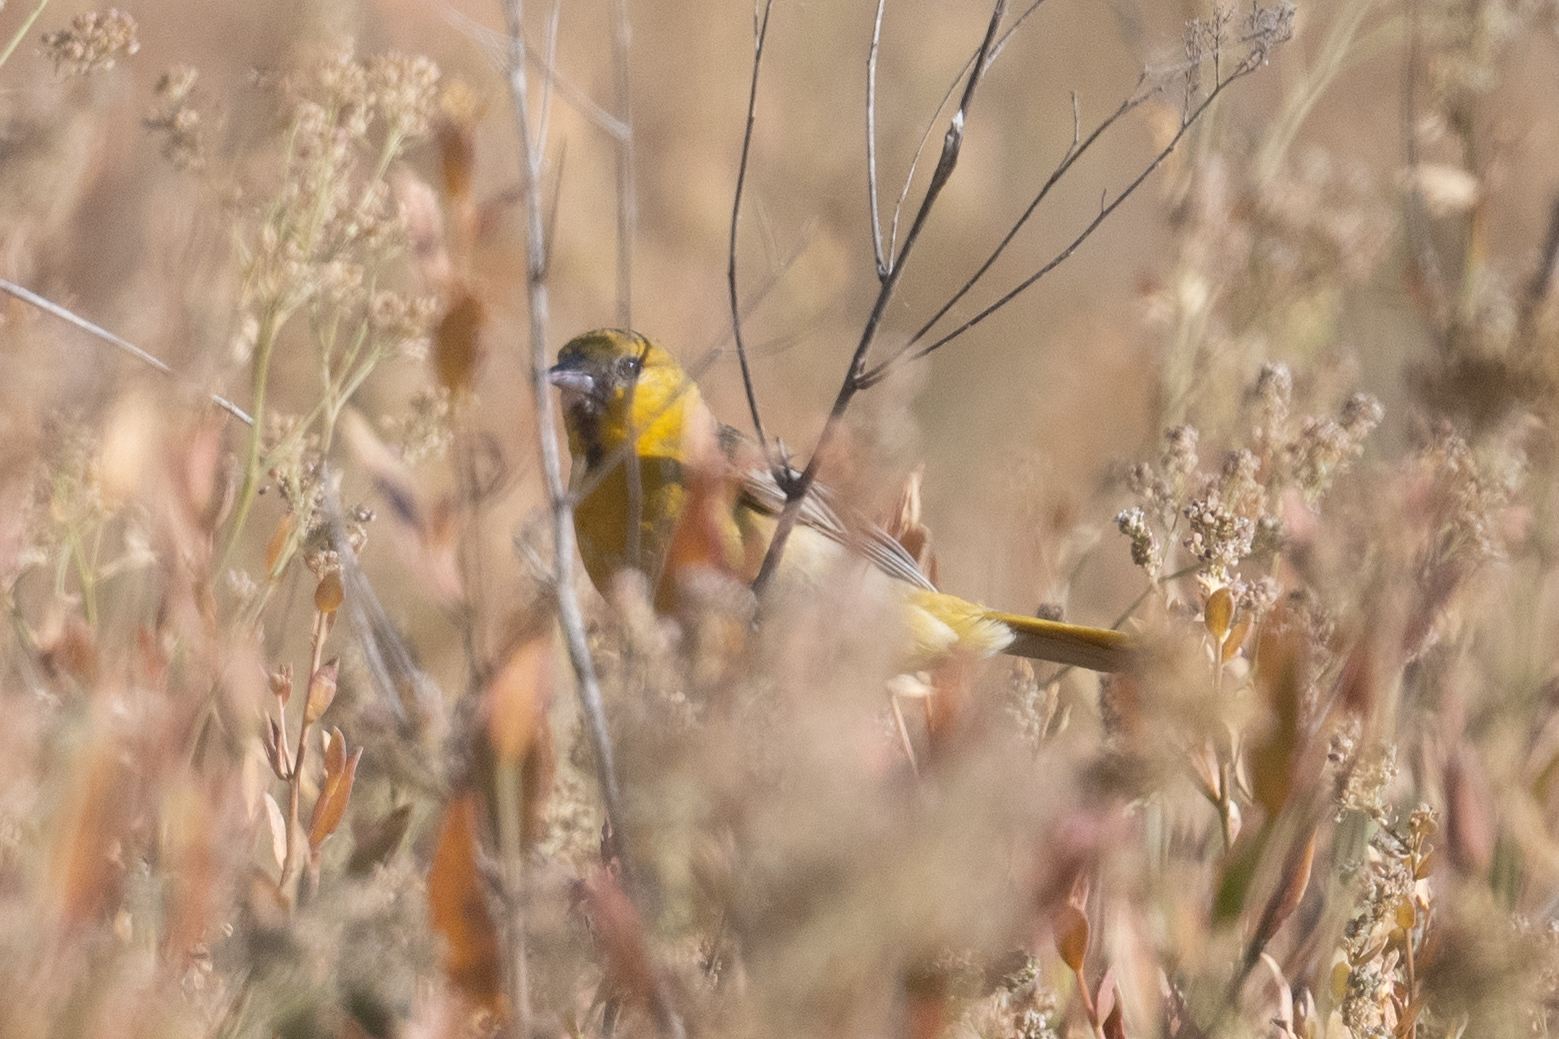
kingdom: Animalia
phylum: Chordata
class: Aves
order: Passeriformes
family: Icteridae
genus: Icterus
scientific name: Icterus bullockii
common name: Bullock's oriole
